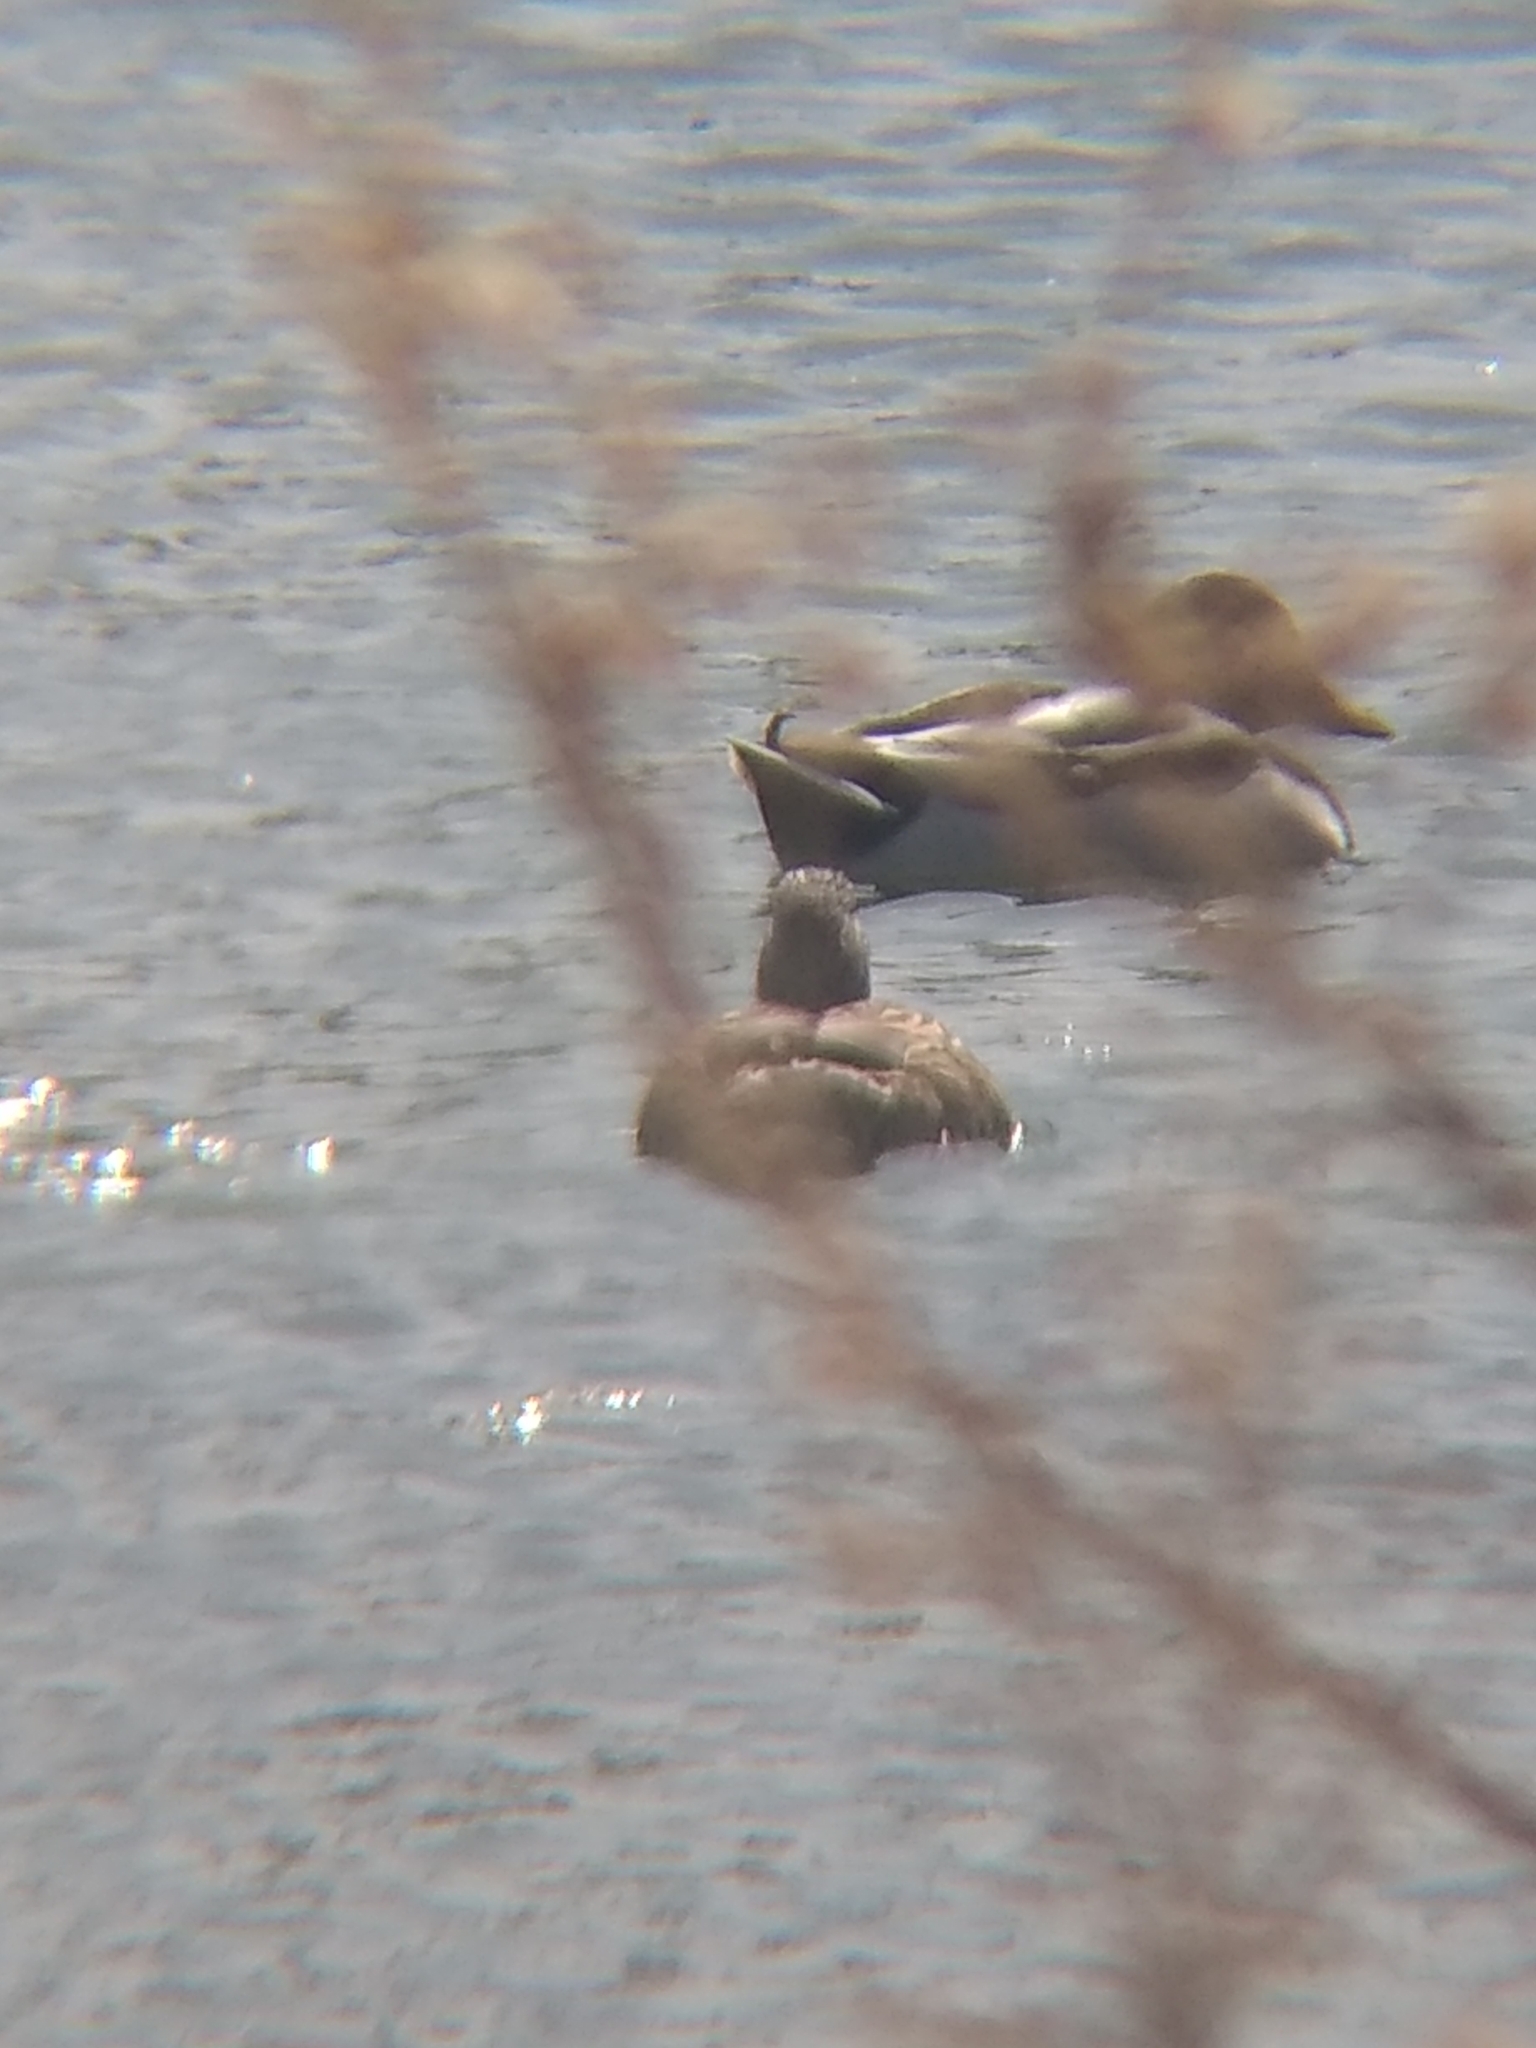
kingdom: Animalia
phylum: Chordata
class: Aves
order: Anseriformes
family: Anatidae
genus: Anas
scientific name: Anas platyrhynchos
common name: Mallard
